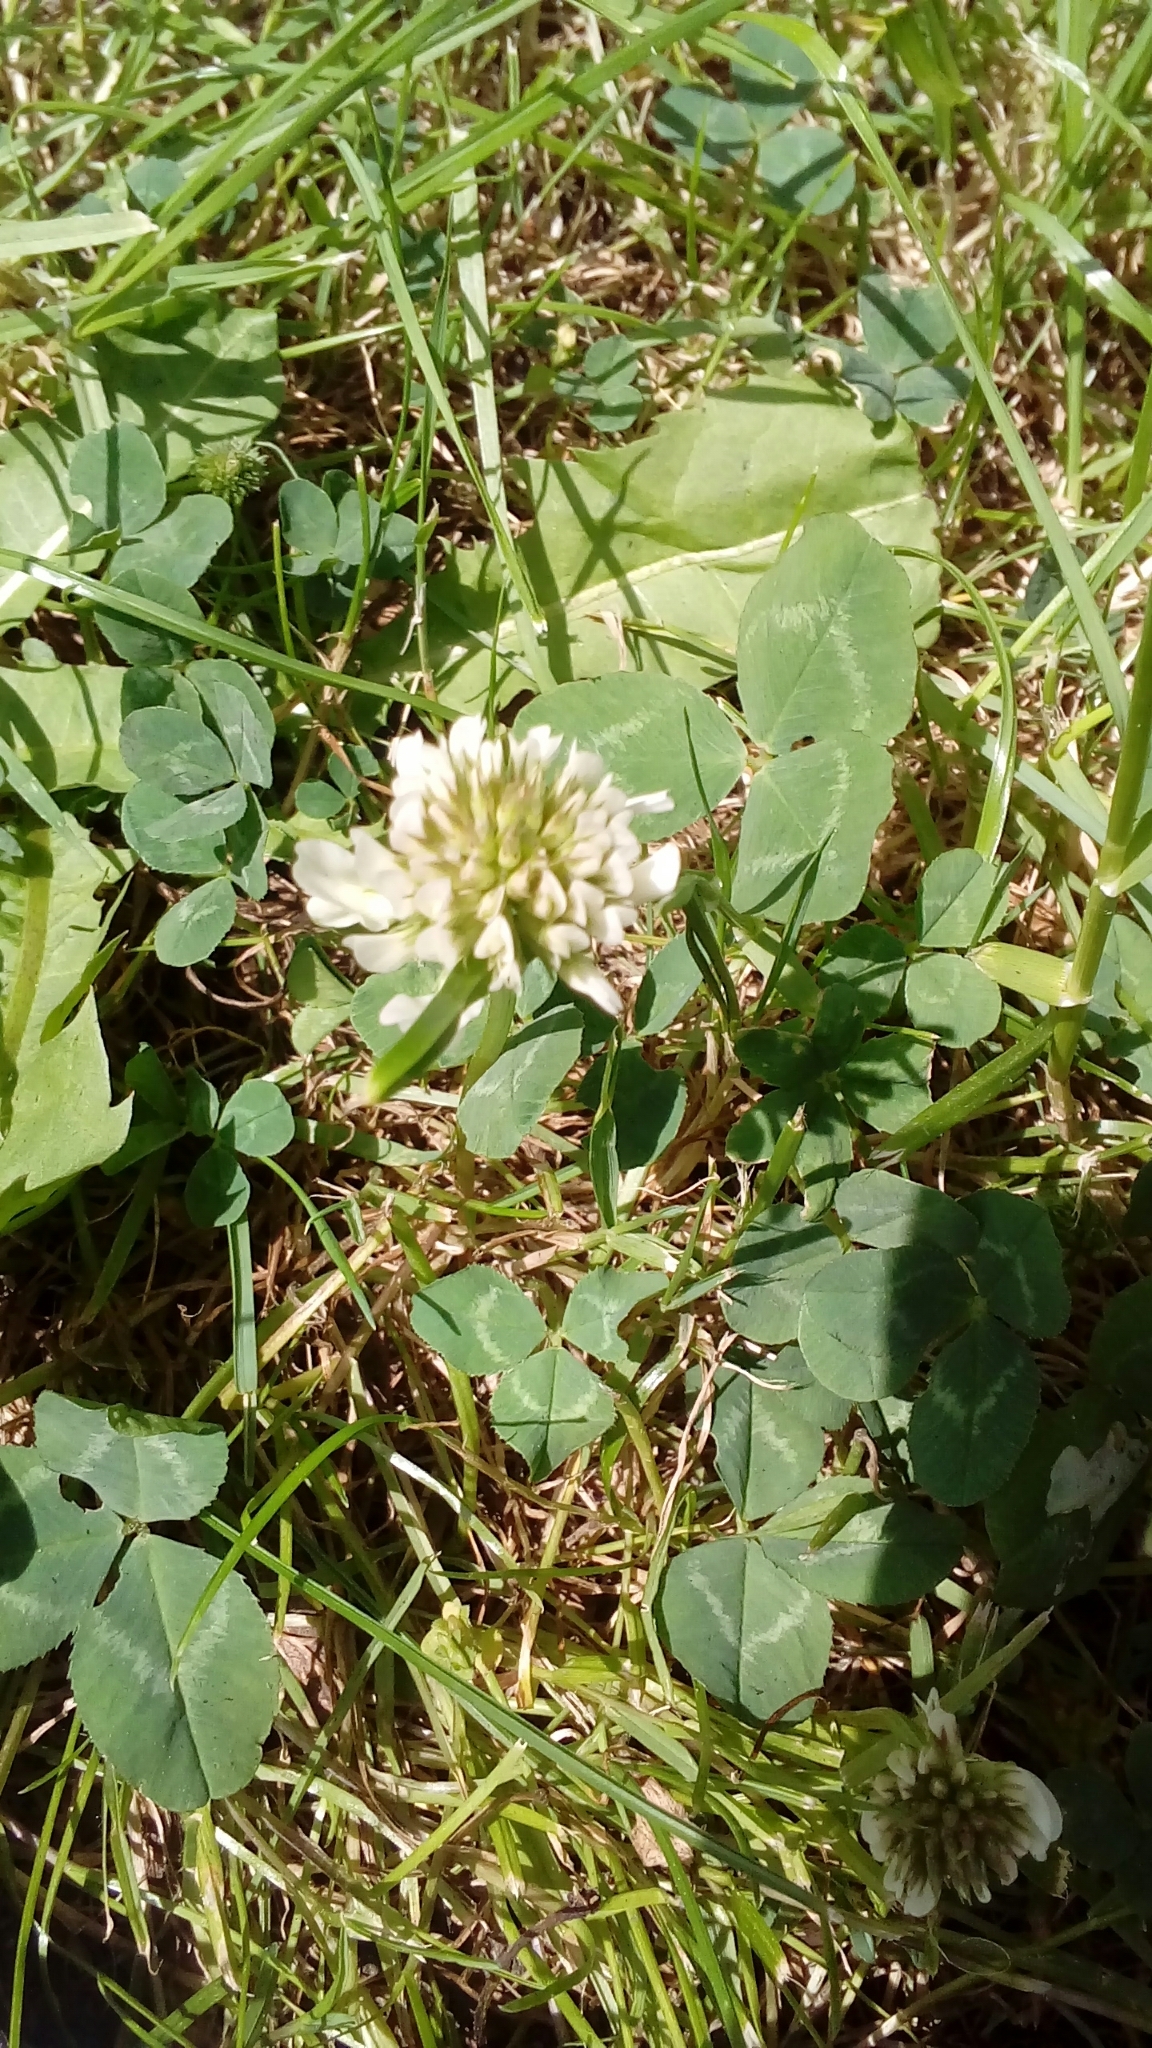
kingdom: Plantae
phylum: Tracheophyta
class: Magnoliopsida
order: Fabales
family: Fabaceae
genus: Trifolium
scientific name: Trifolium repens
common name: White clover
